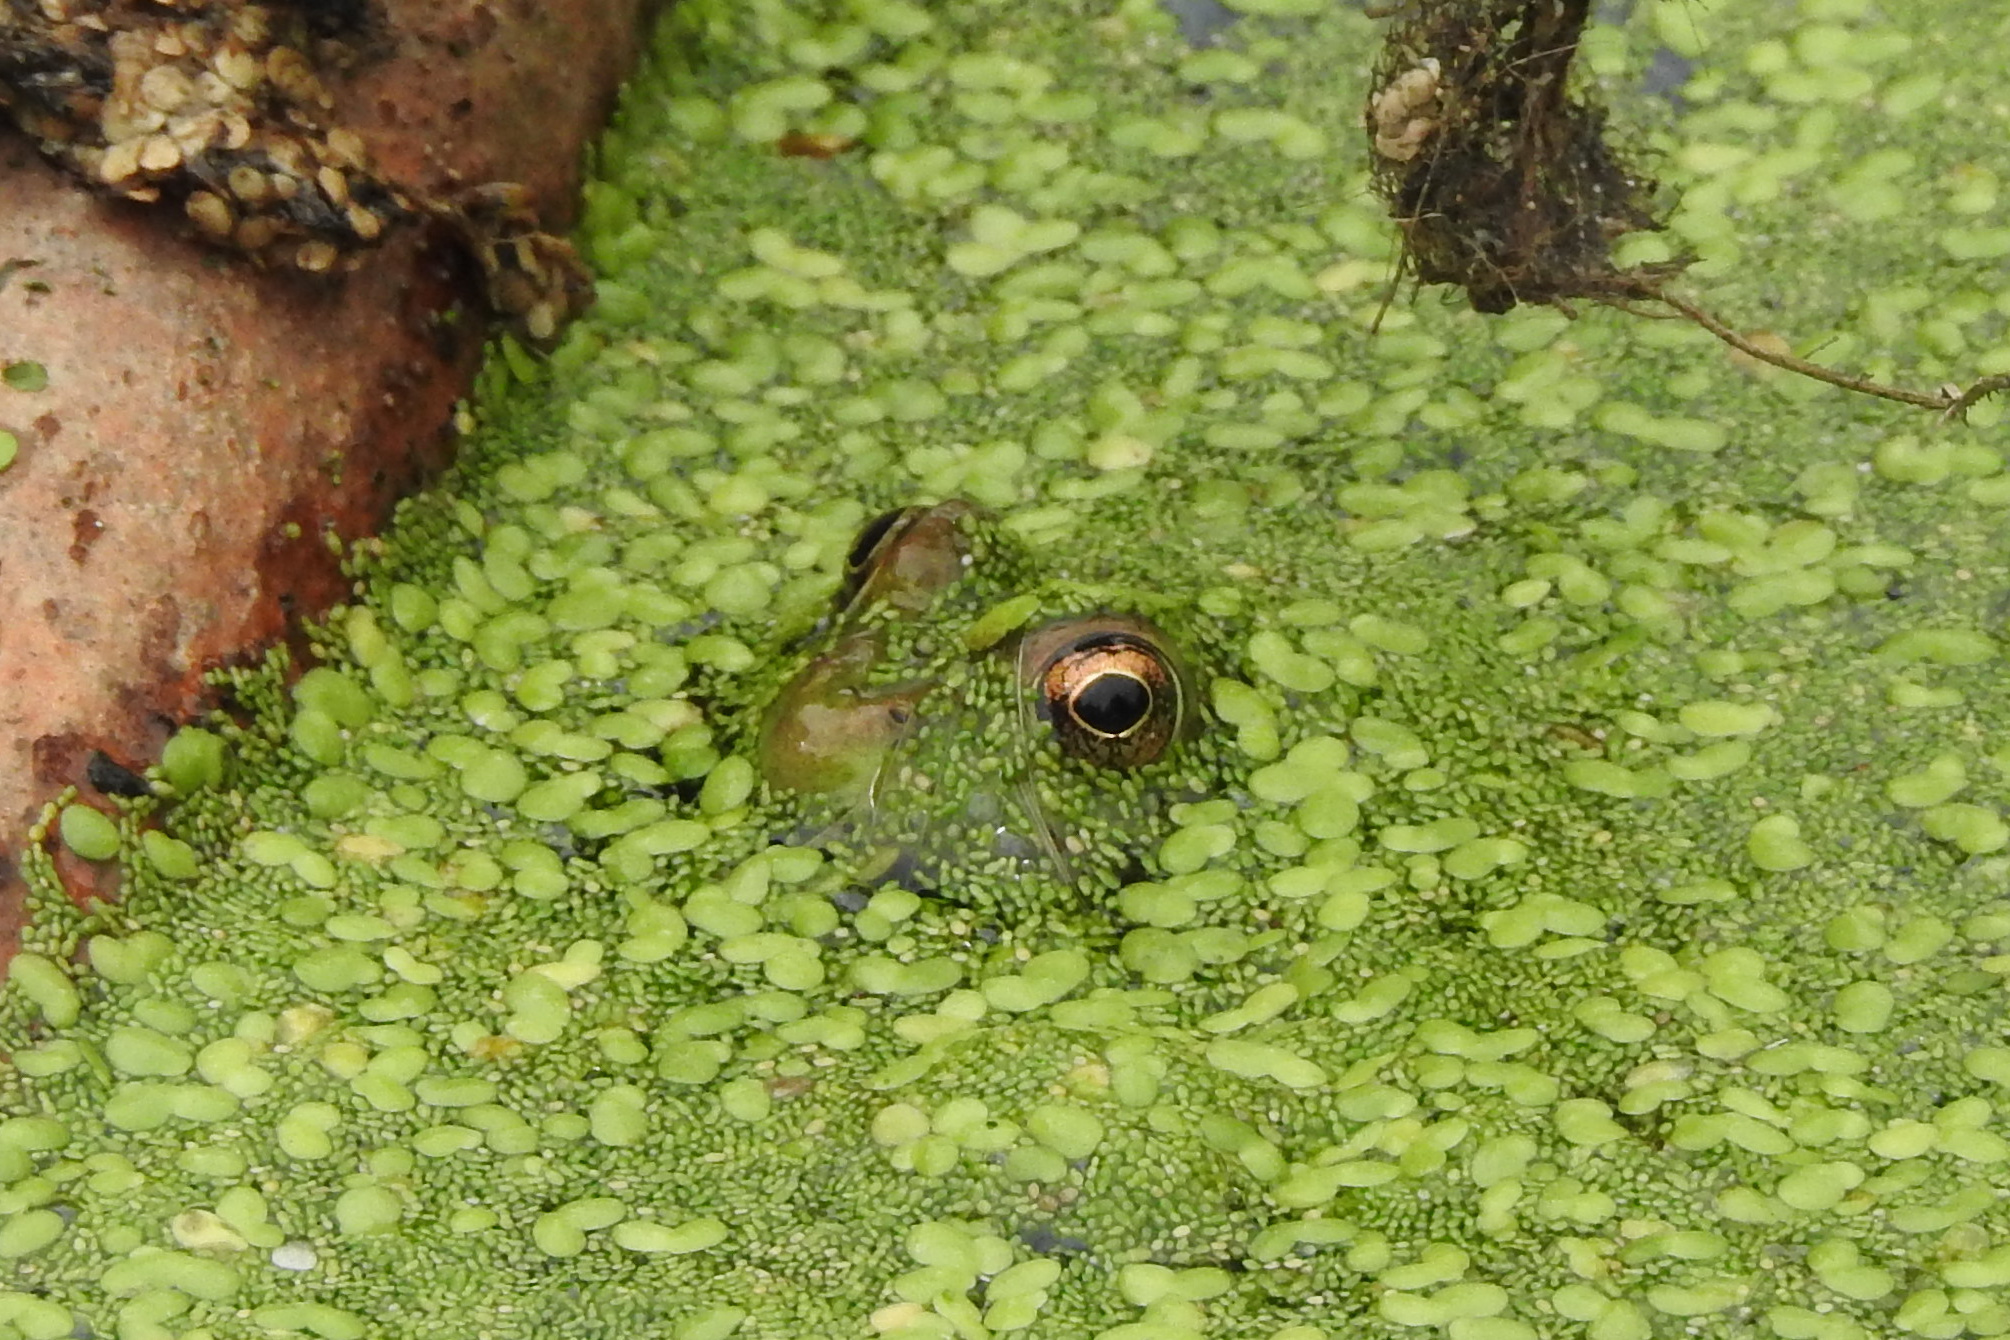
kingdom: Animalia
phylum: Chordata
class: Amphibia
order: Anura
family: Ranidae
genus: Lithobates
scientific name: Lithobates
